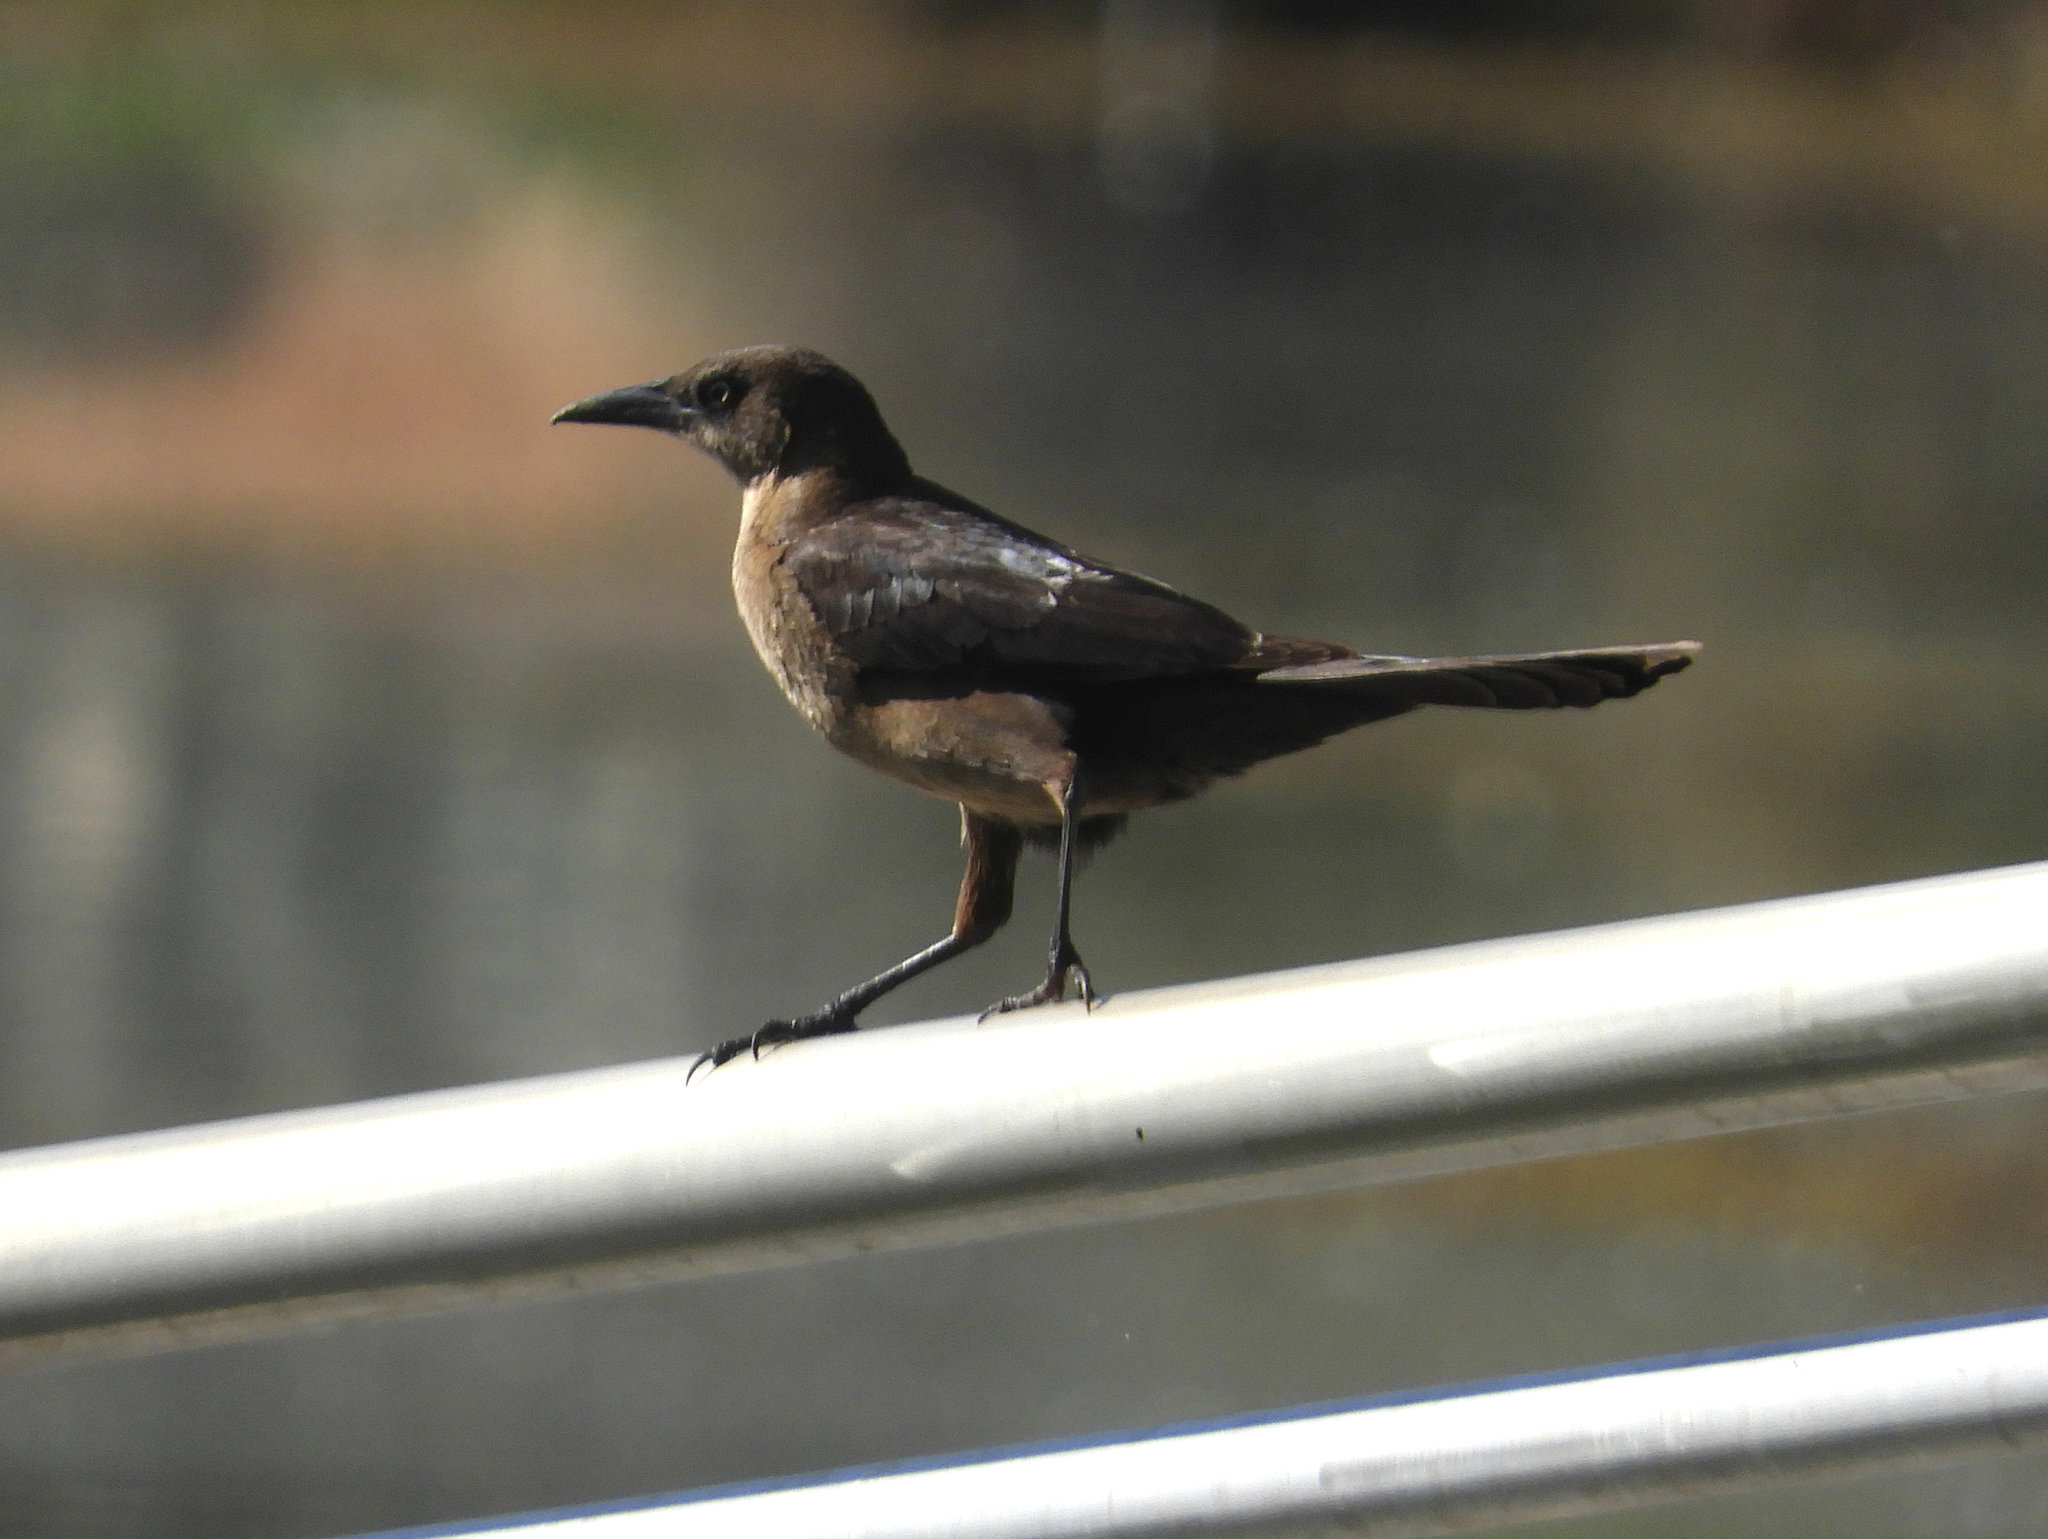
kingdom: Animalia
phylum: Chordata
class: Aves
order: Passeriformes
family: Icteridae
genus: Quiscalus
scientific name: Quiscalus mexicanus
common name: Great-tailed grackle
